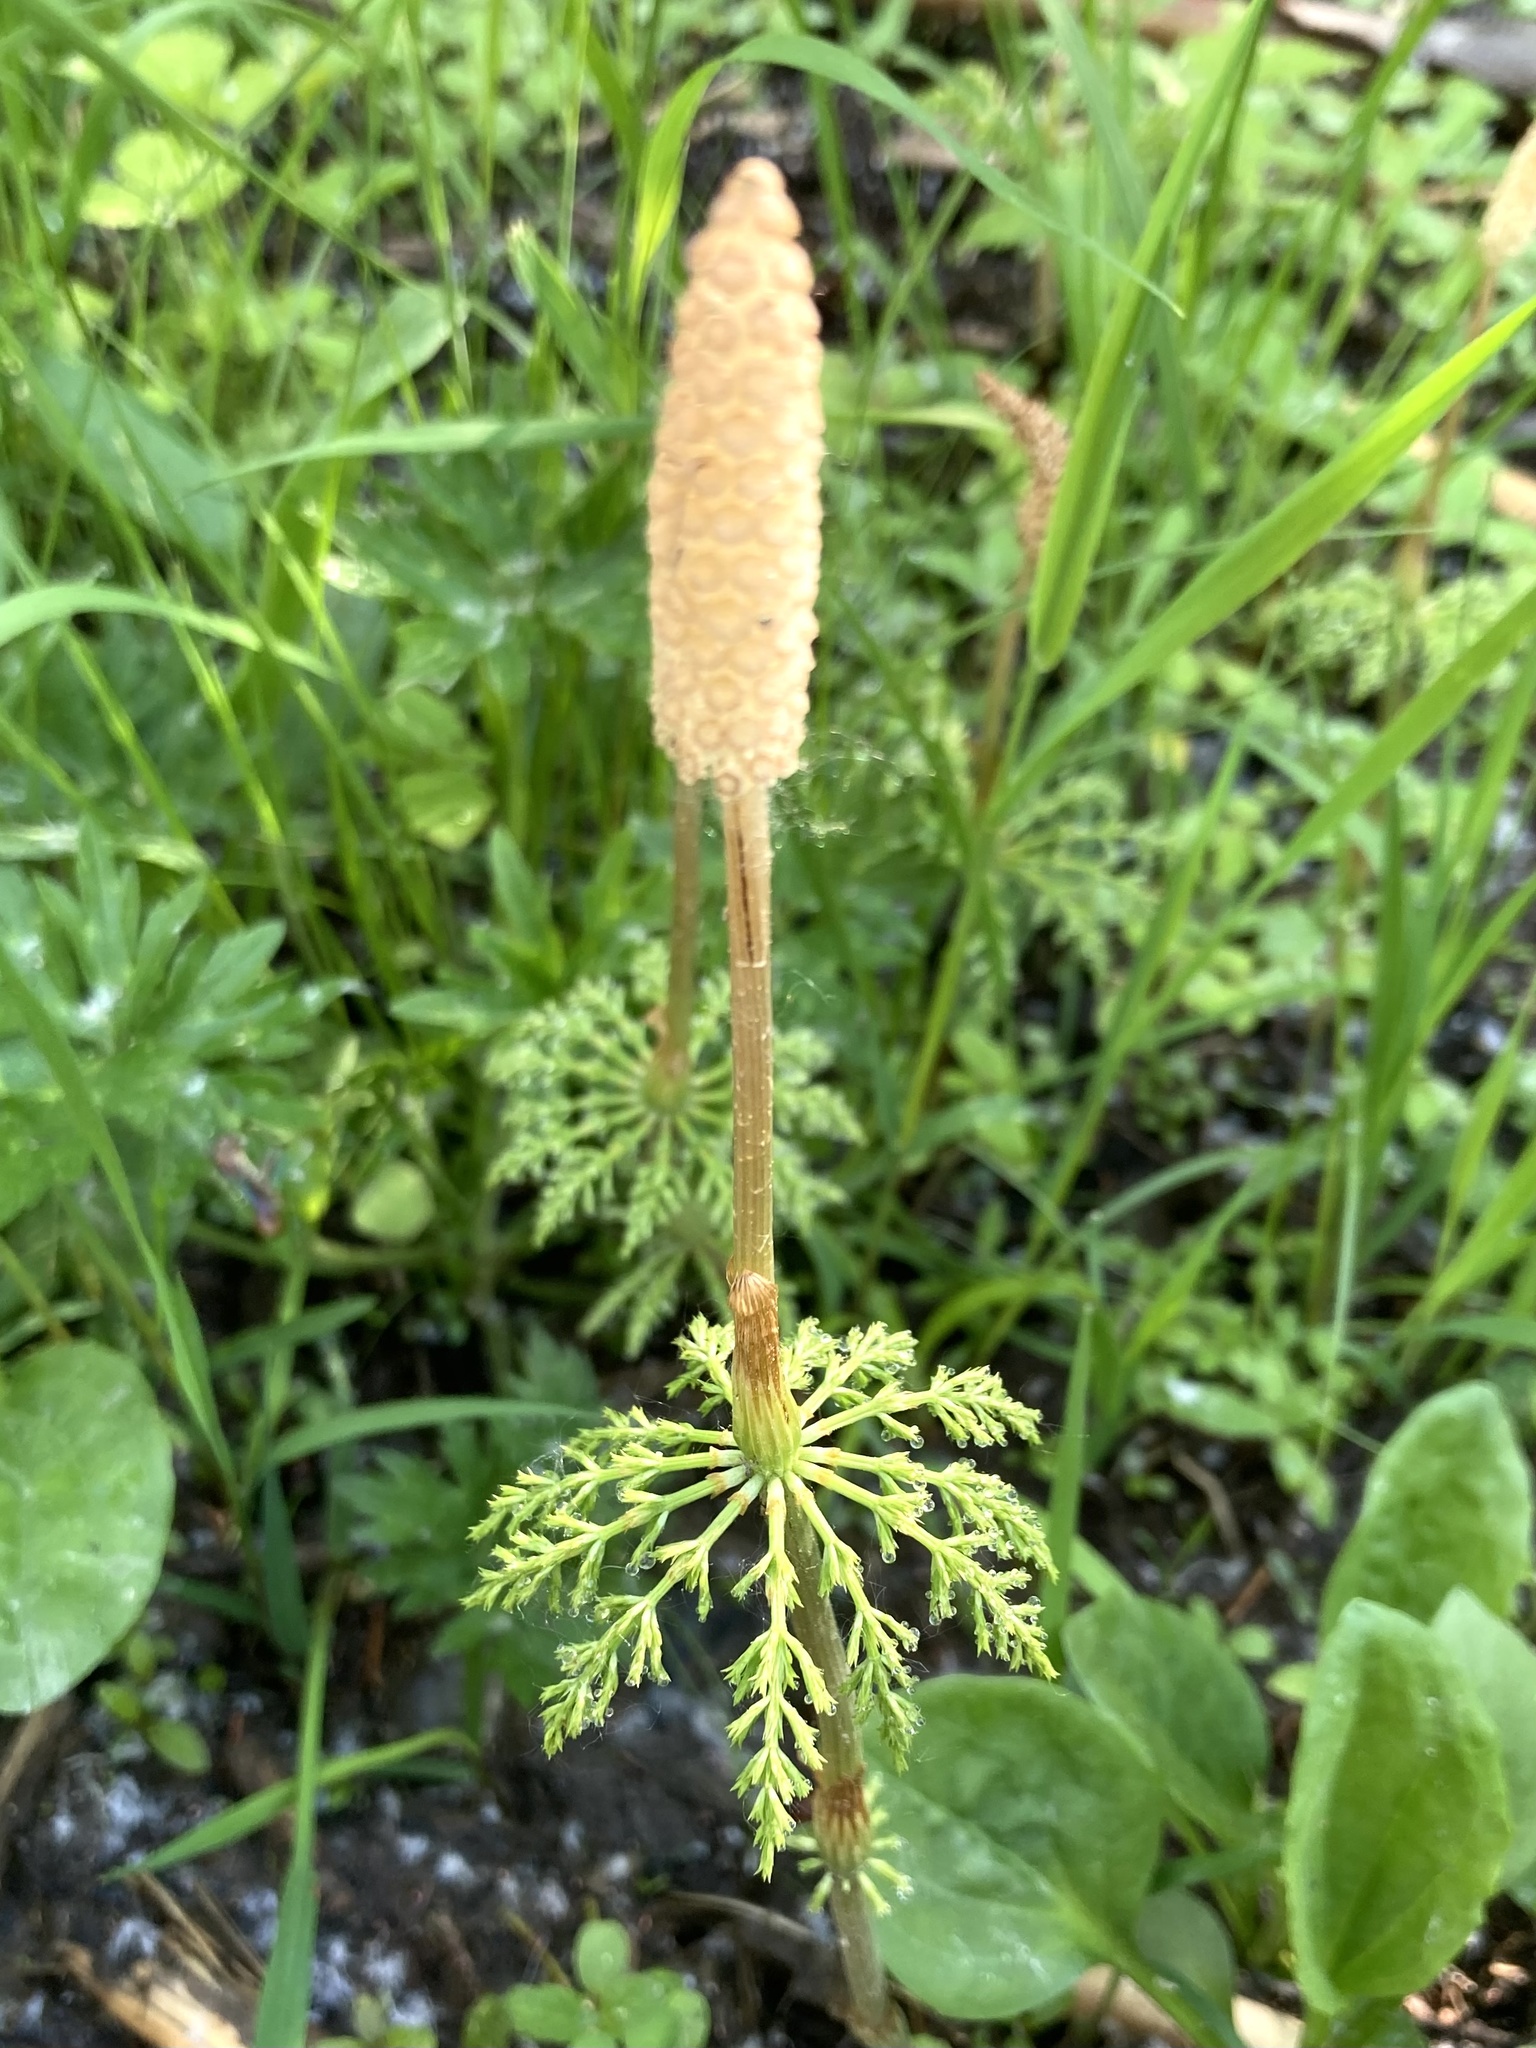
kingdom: Plantae
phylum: Tracheophyta
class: Polypodiopsida
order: Equisetales
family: Equisetaceae
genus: Equisetum
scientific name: Equisetum sylvaticum
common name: Wood horsetail
